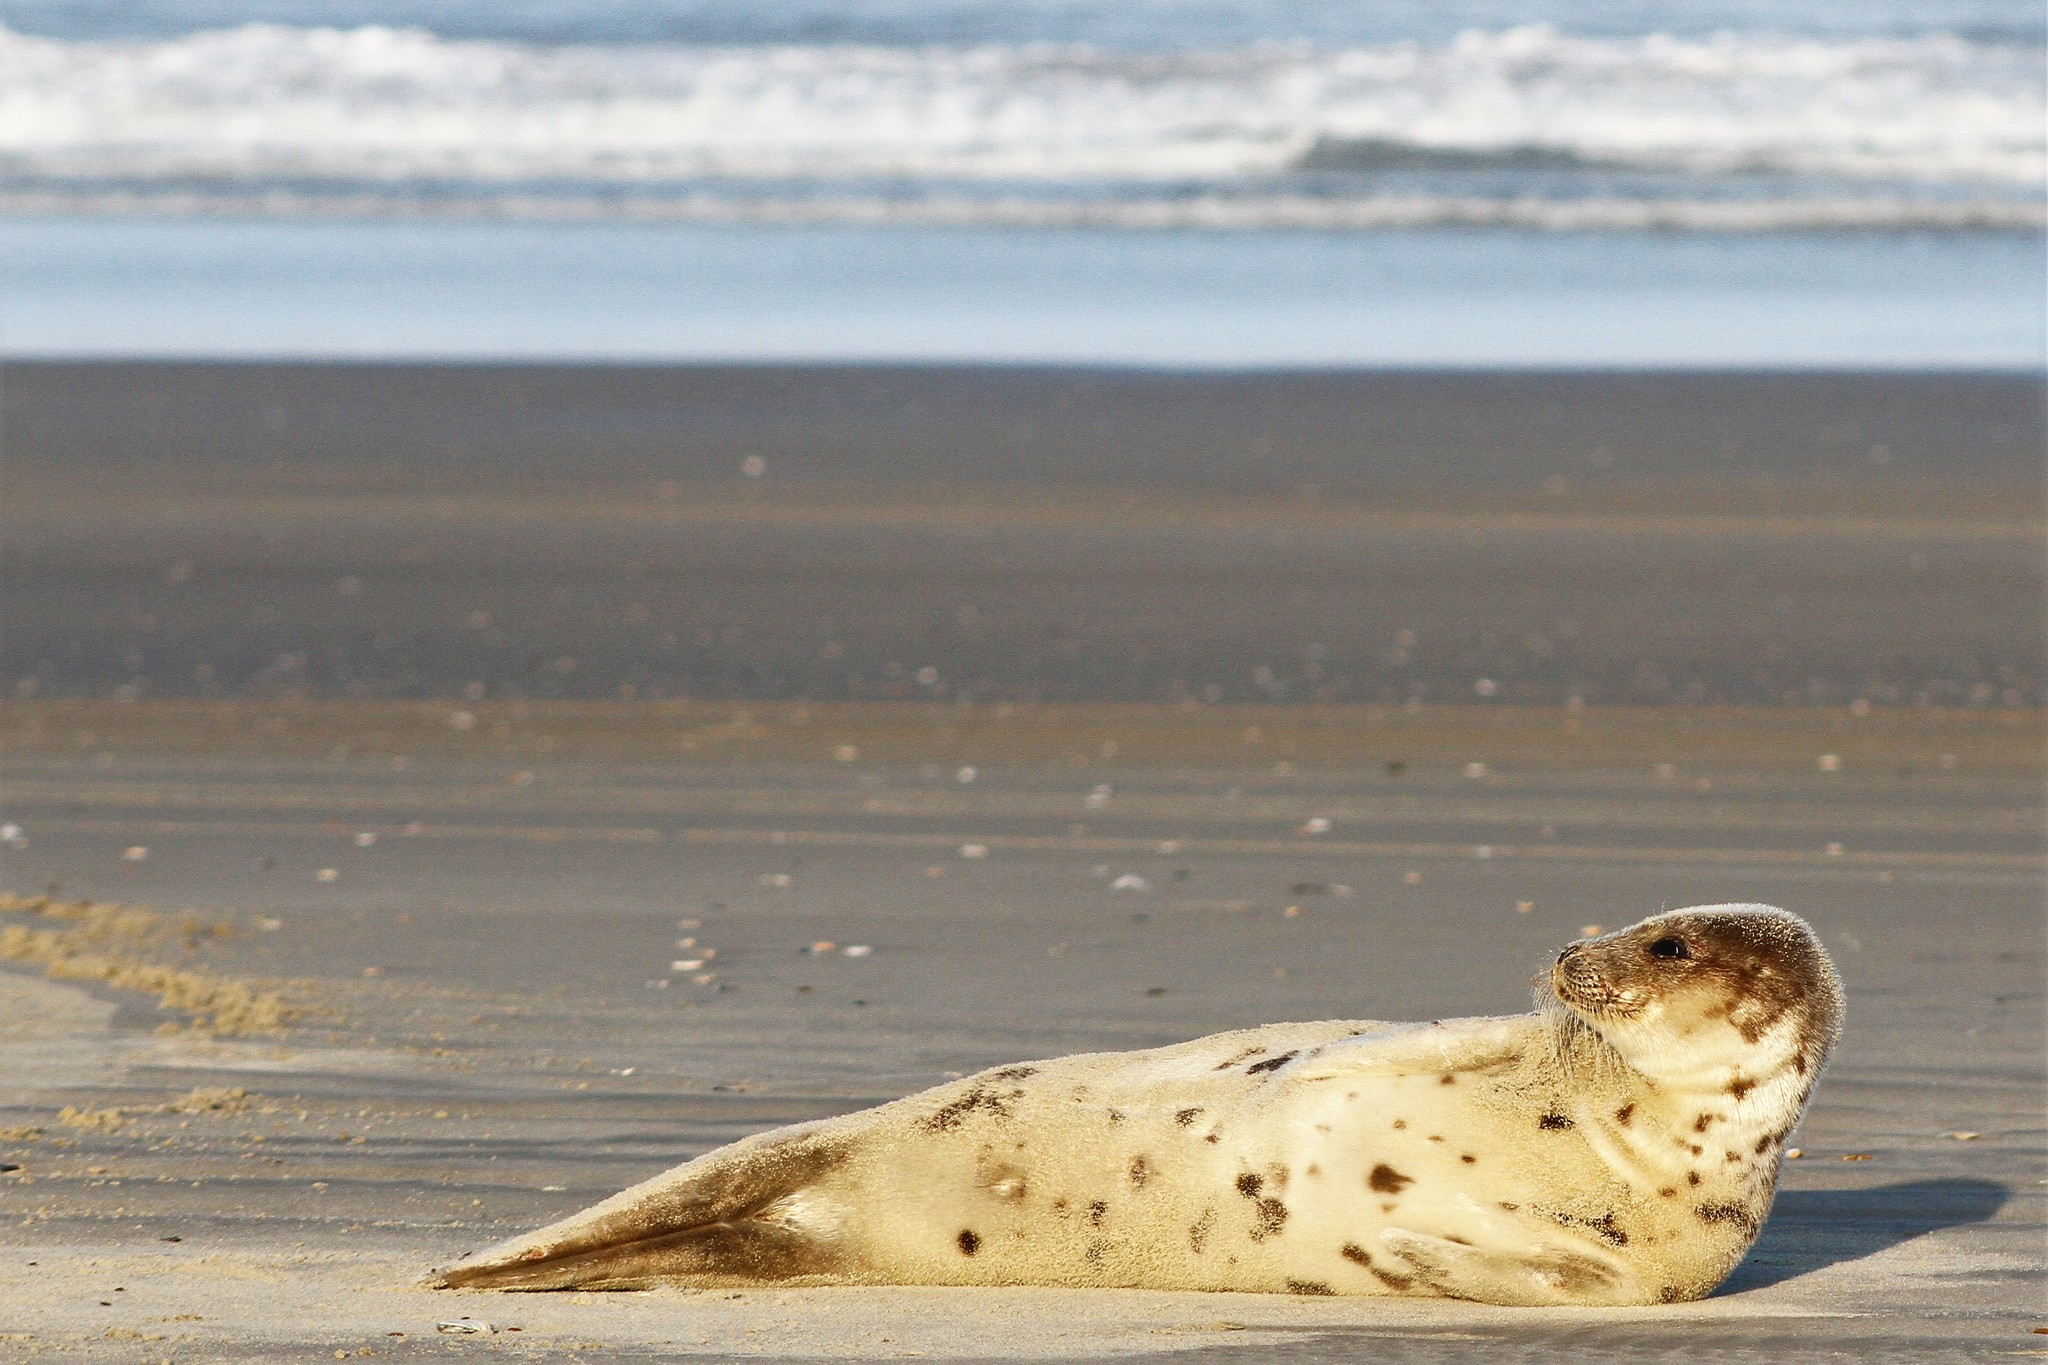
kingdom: Animalia
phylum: Chordata
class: Mammalia
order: Carnivora
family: Phocidae
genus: Pagophilus
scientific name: Pagophilus groenlandicus
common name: Harp seal
